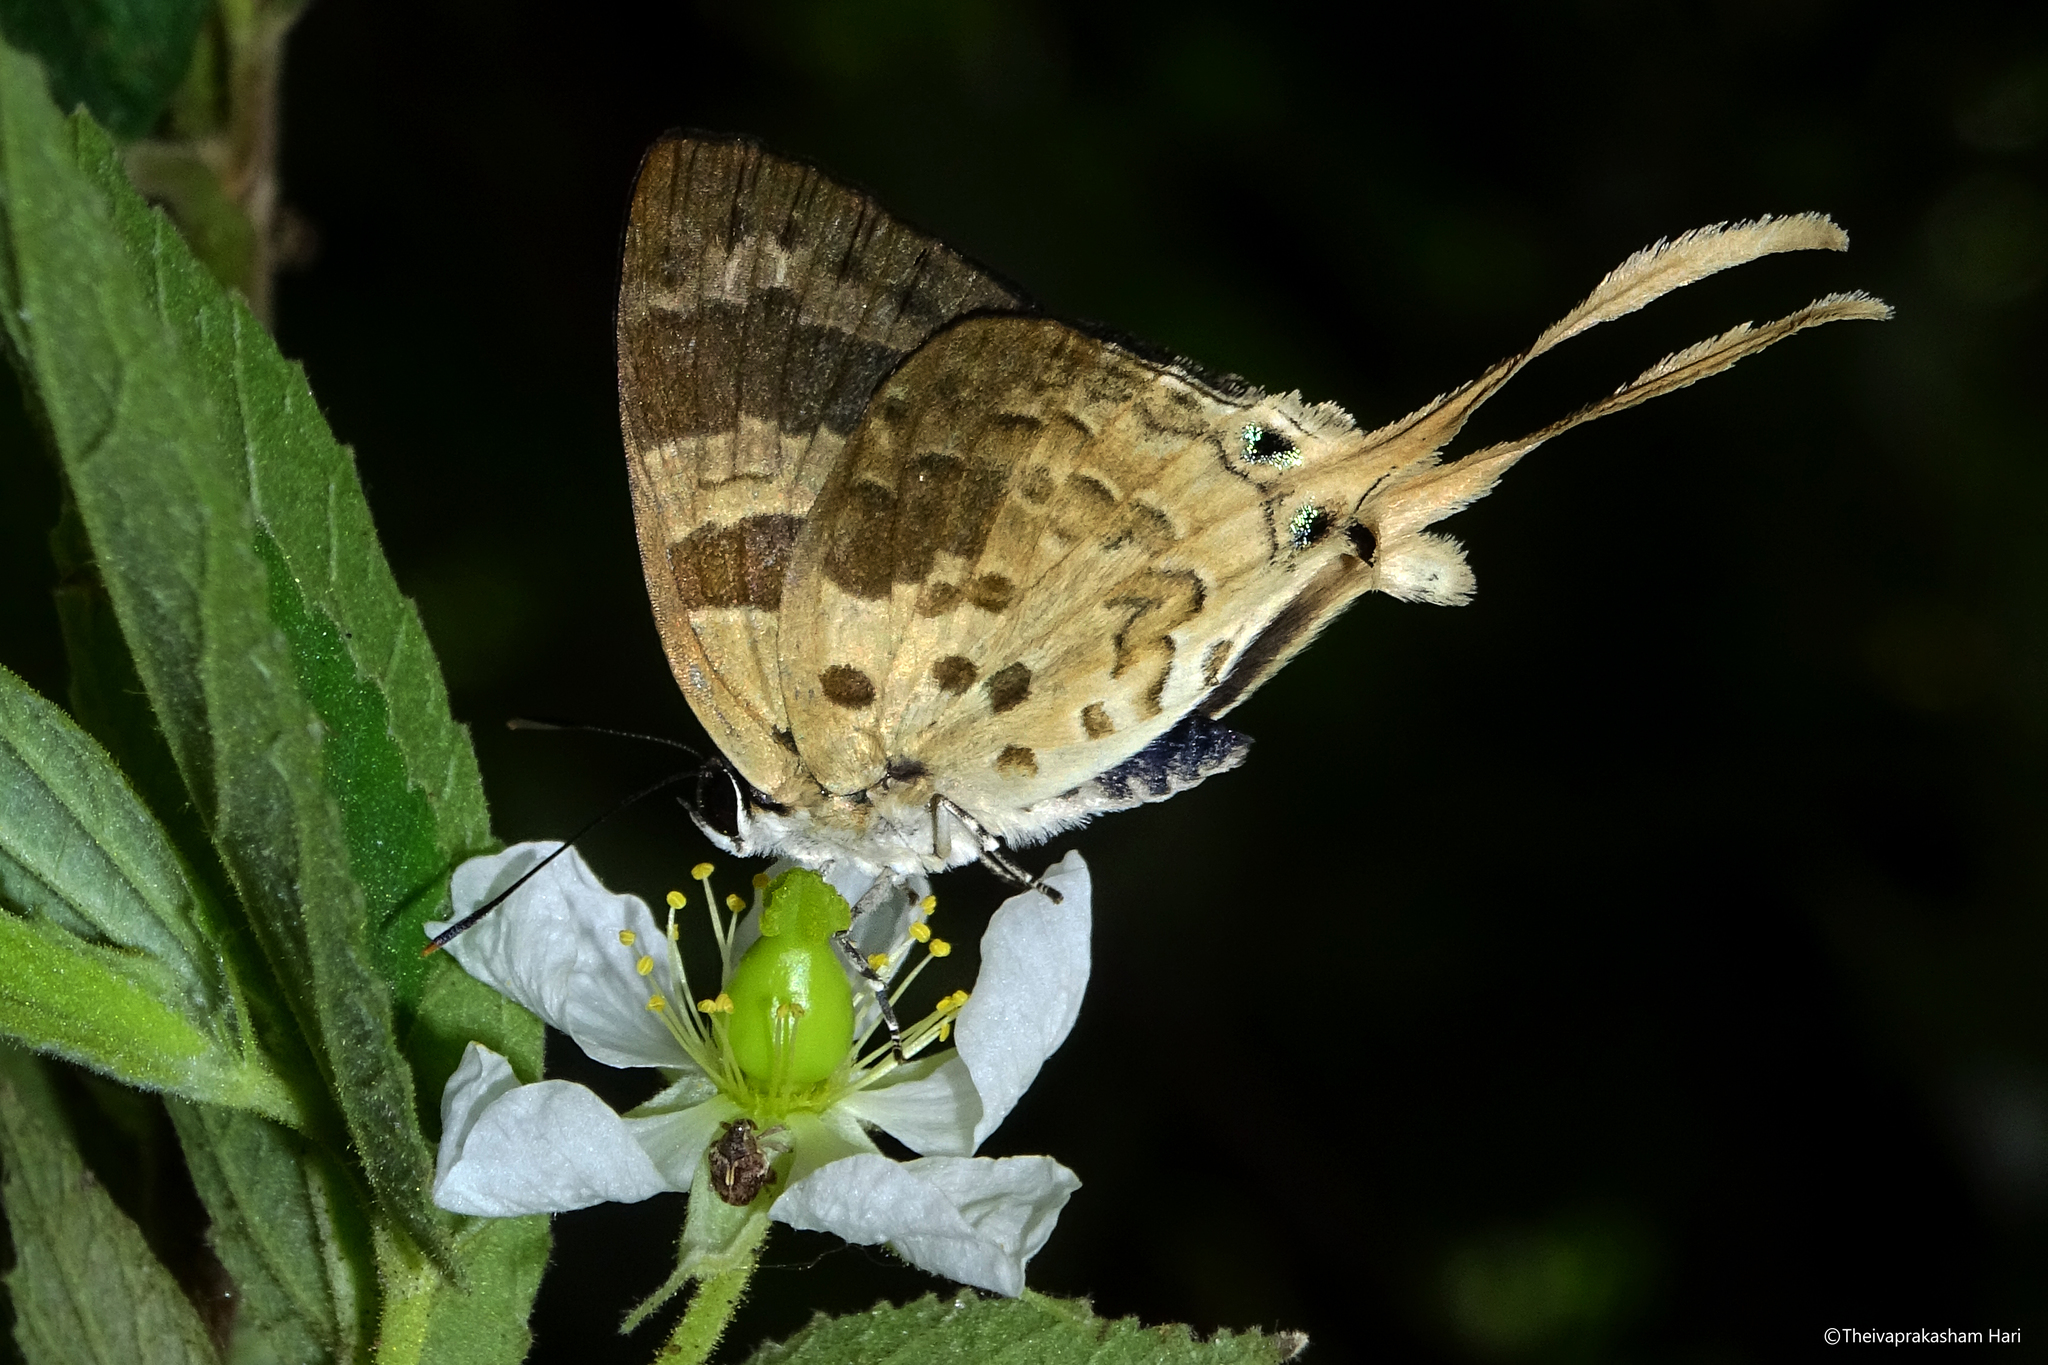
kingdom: Animalia
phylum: Arthropoda
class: Insecta
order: Lepidoptera
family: Lycaenidae
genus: Bindahara
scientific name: Bindahara phocides
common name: Sword-tailed flash
